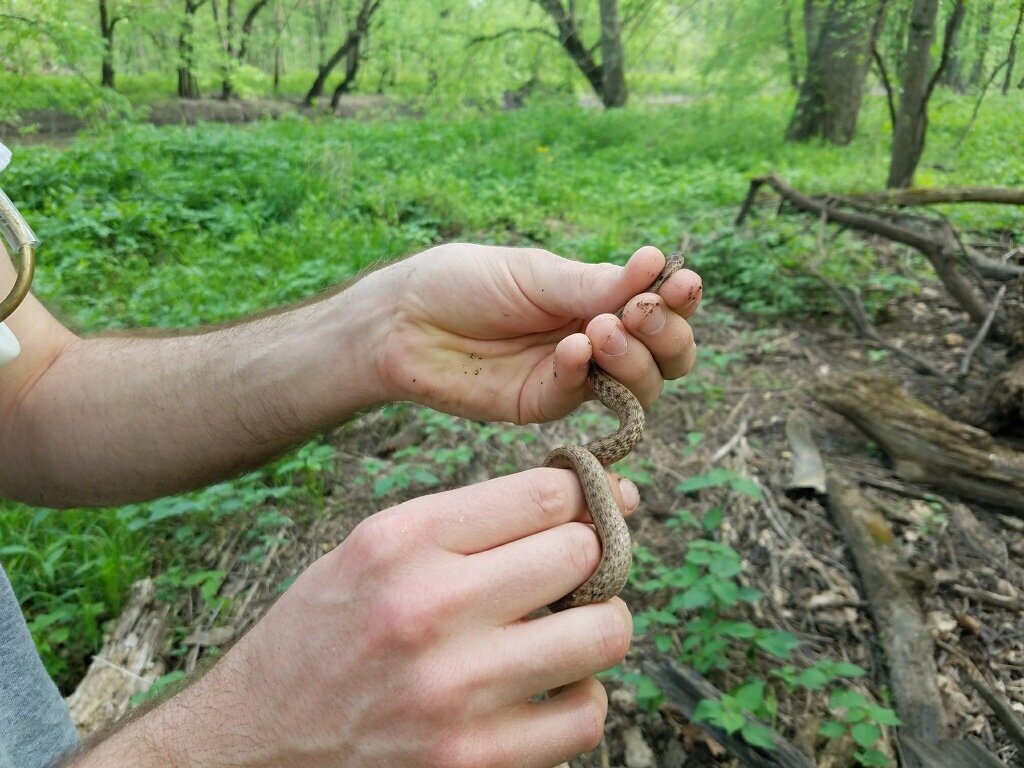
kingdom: Animalia
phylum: Chordata
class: Squamata
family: Colubridae
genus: Storeria
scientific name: Storeria dekayi
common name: (dekay’s) brown snake
